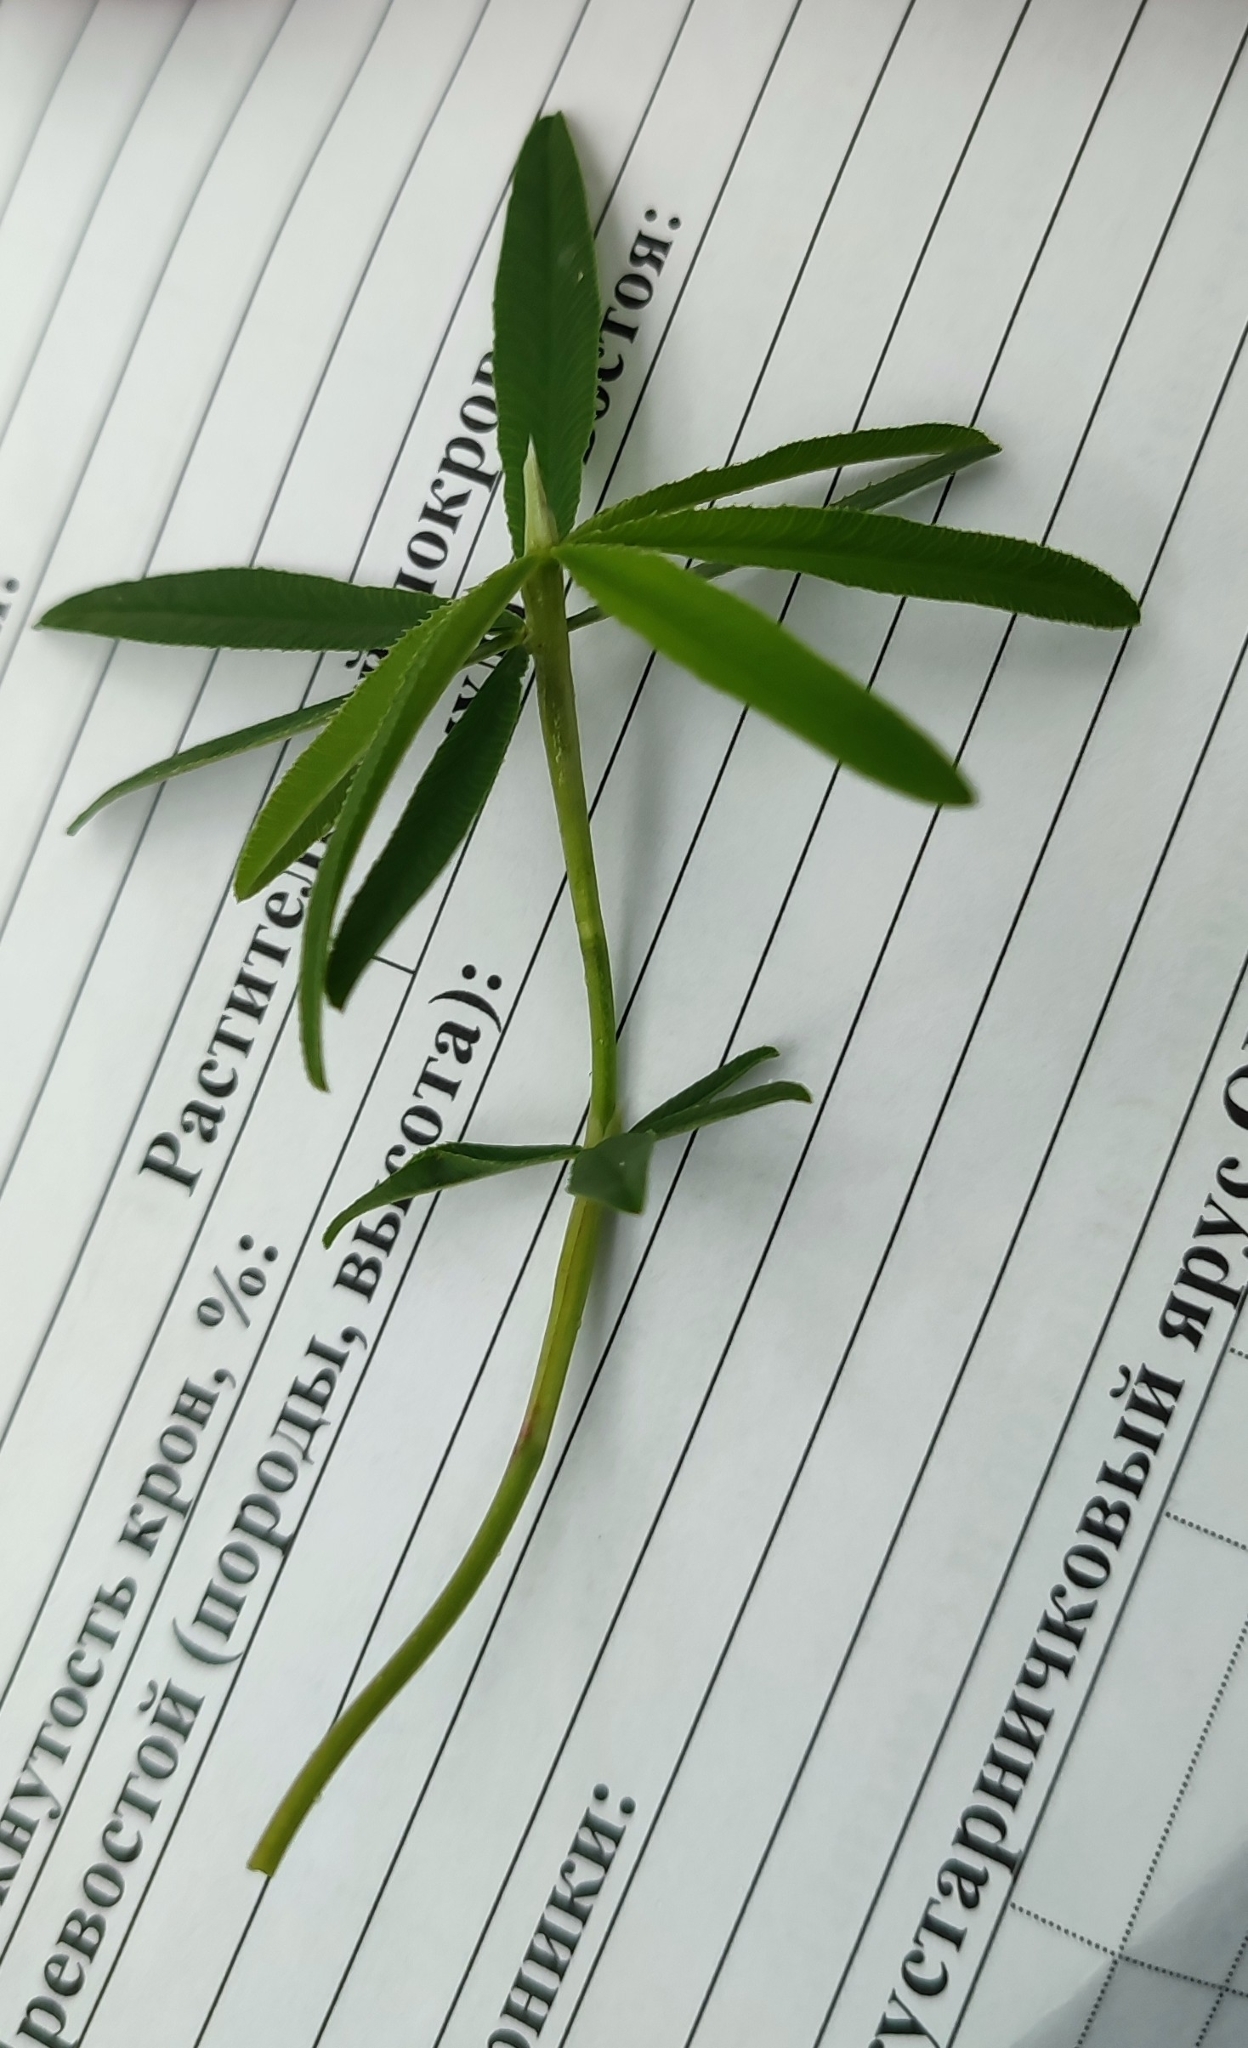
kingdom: Plantae
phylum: Tracheophyta
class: Magnoliopsida
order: Fabales
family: Fabaceae
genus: Trifolium
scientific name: Trifolium lupinaster
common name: Lupine clover
